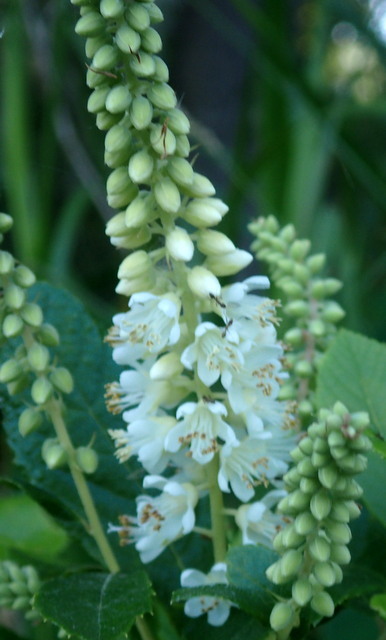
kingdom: Plantae
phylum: Tracheophyta
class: Magnoliopsida
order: Ericales
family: Clethraceae
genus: Clethra
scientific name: Clethra alnifolia
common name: Sweet pepperbush
